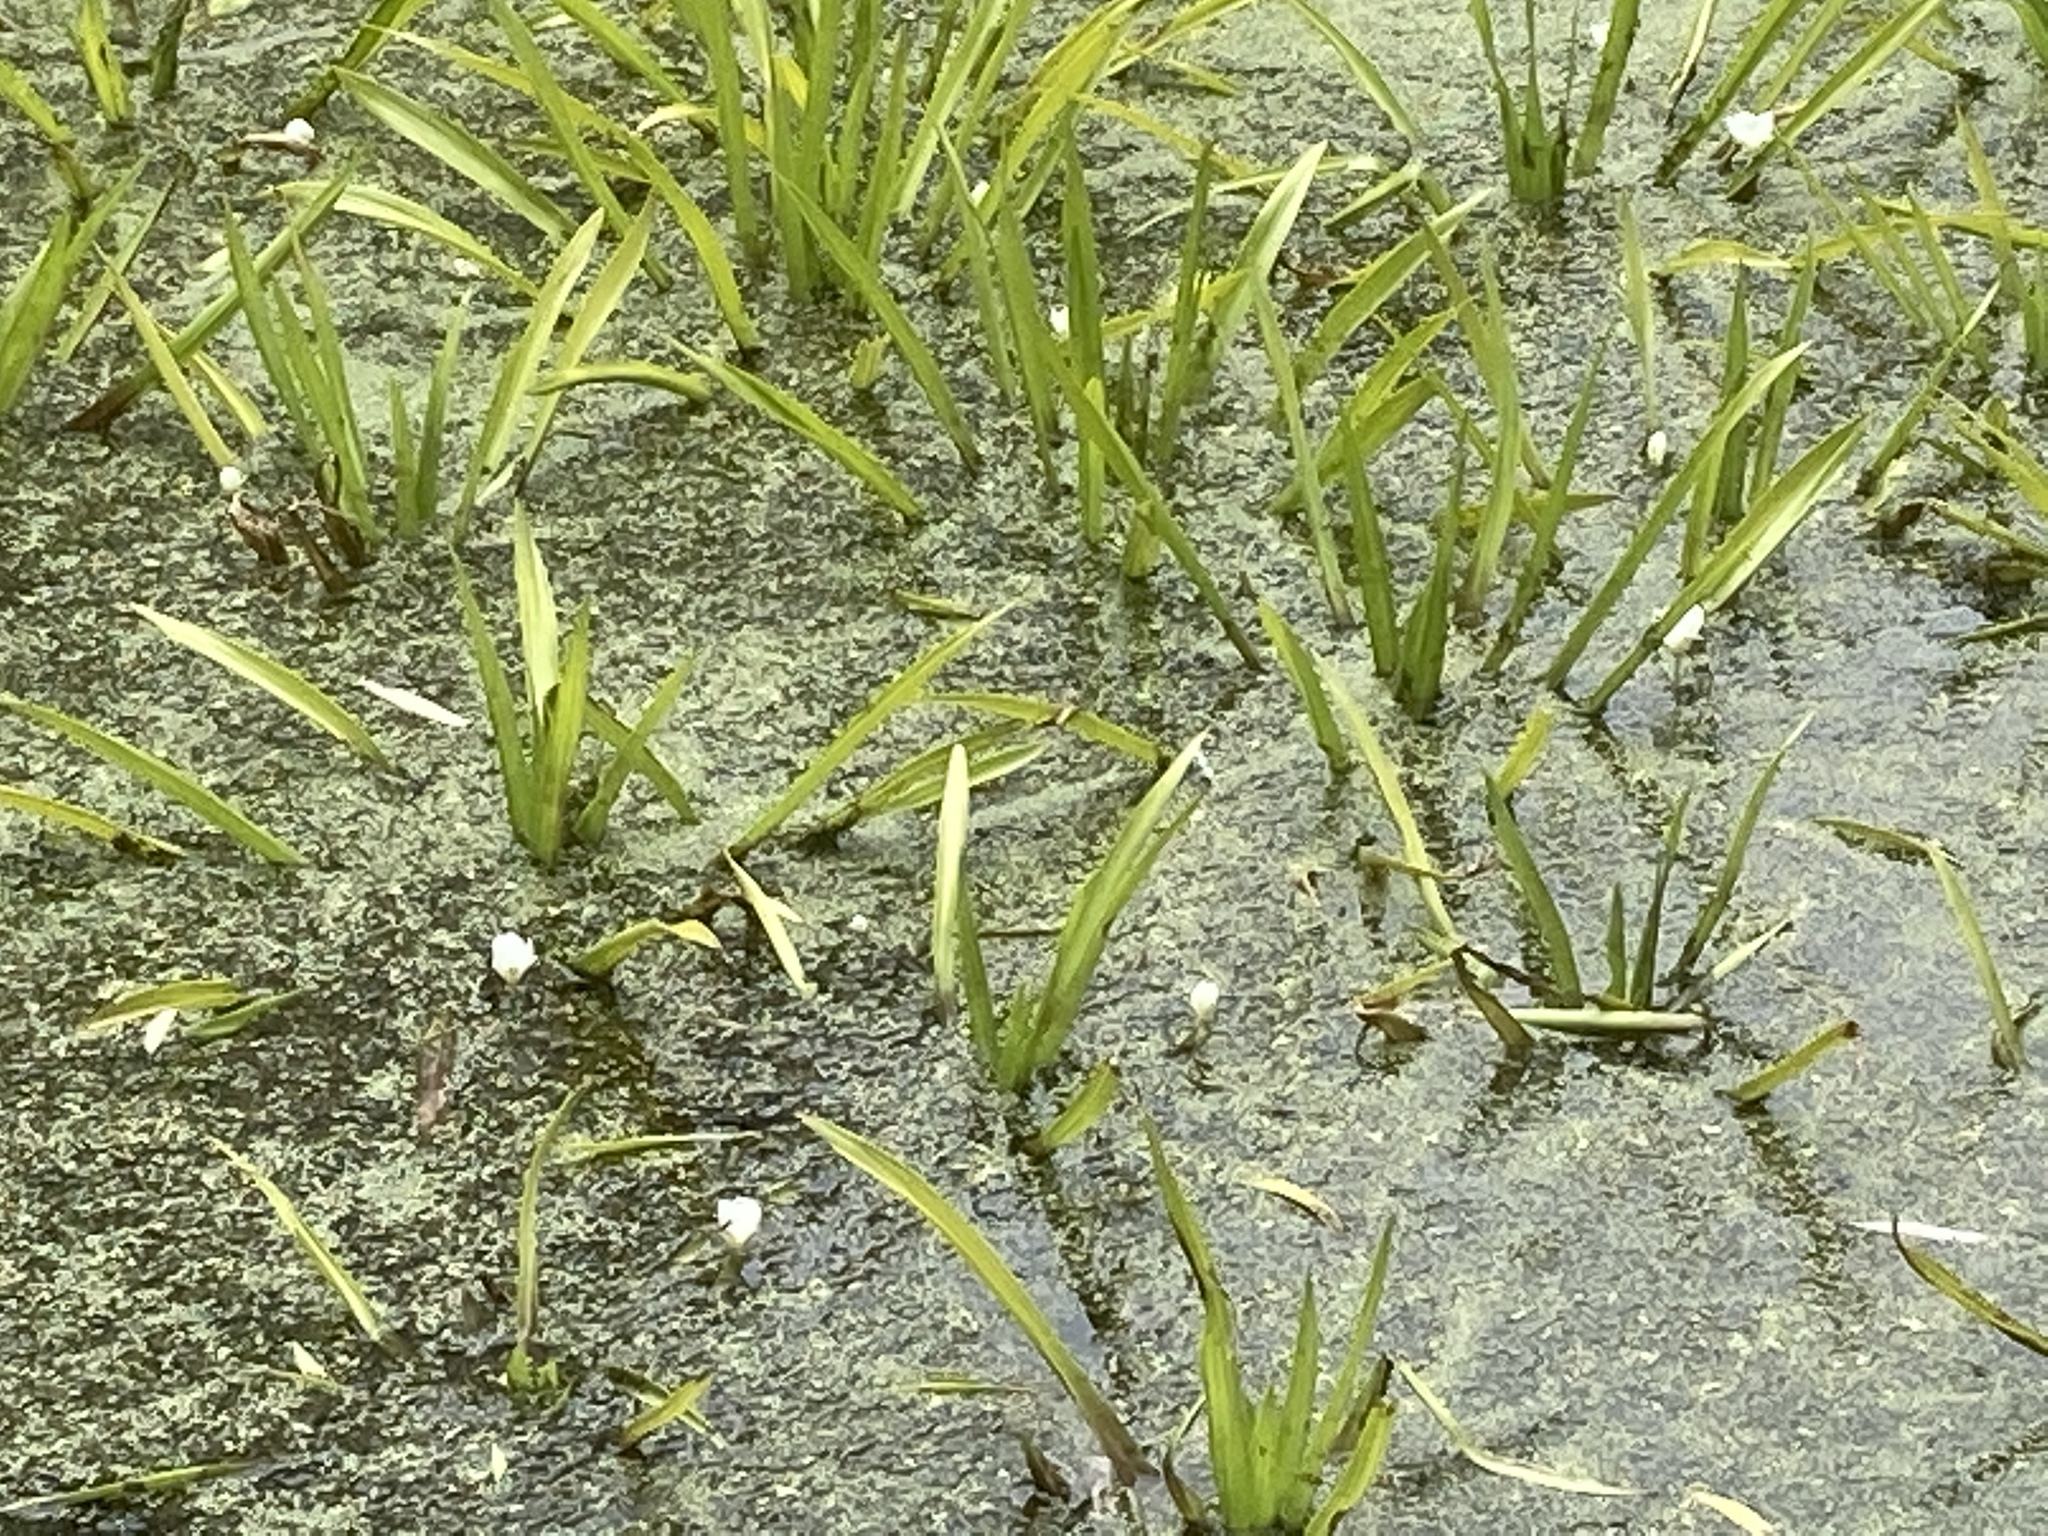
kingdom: Plantae
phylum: Tracheophyta
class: Liliopsida
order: Alismatales
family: Hydrocharitaceae
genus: Stratiotes
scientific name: Stratiotes aloides
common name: Water-soldier
